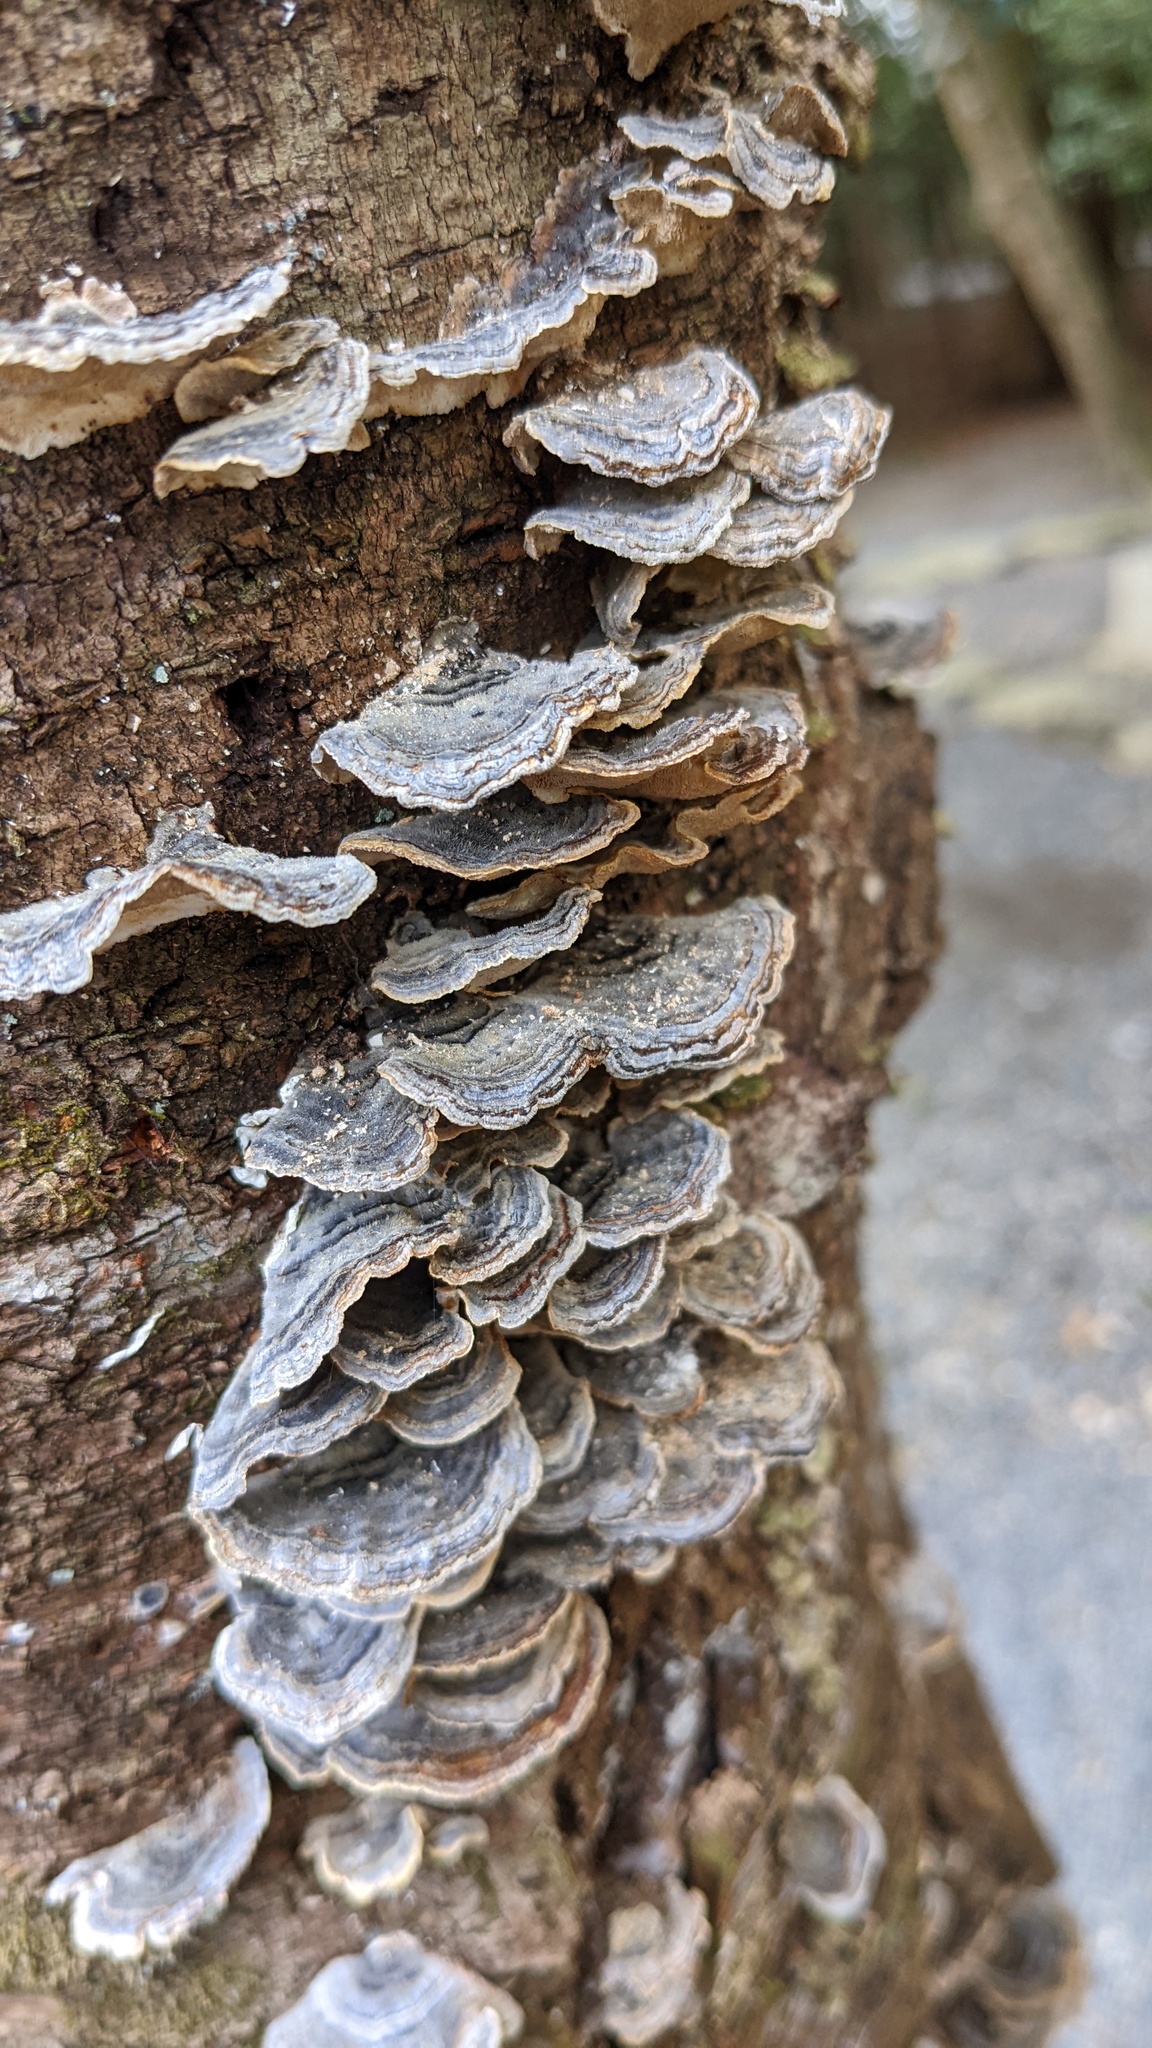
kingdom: Fungi
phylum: Basidiomycota
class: Agaricomycetes
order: Polyporales
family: Polyporaceae
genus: Trametes
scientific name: Trametes versicolor
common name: Turkeytail
